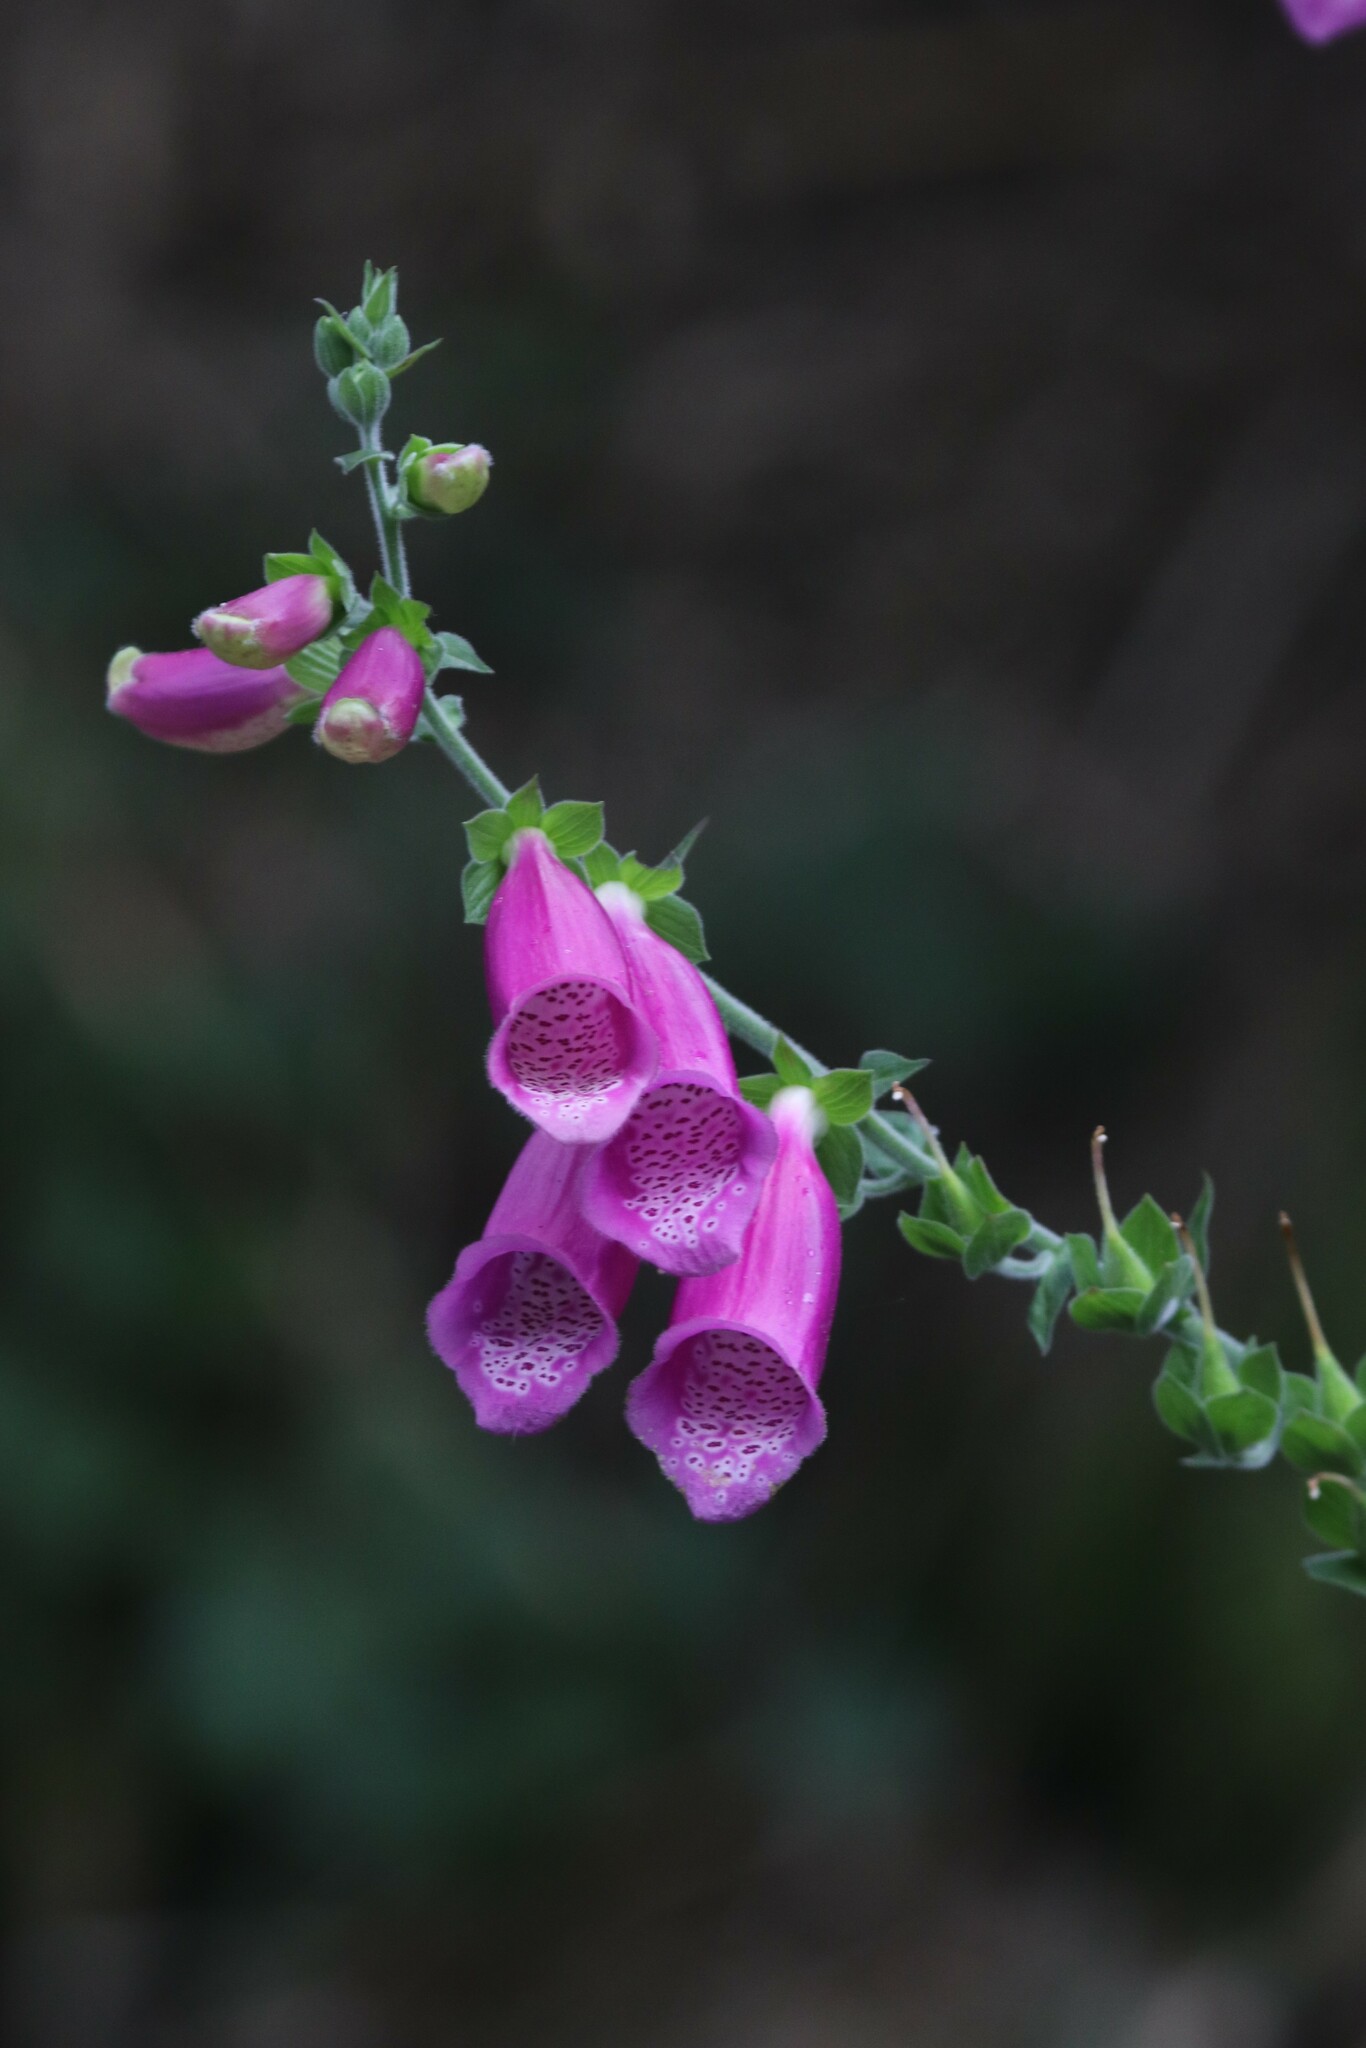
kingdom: Plantae
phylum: Tracheophyta
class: Magnoliopsida
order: Lamiales
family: Plantaginaceae
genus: Digitalis
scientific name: Digitalis purpurea
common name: Foxglove
